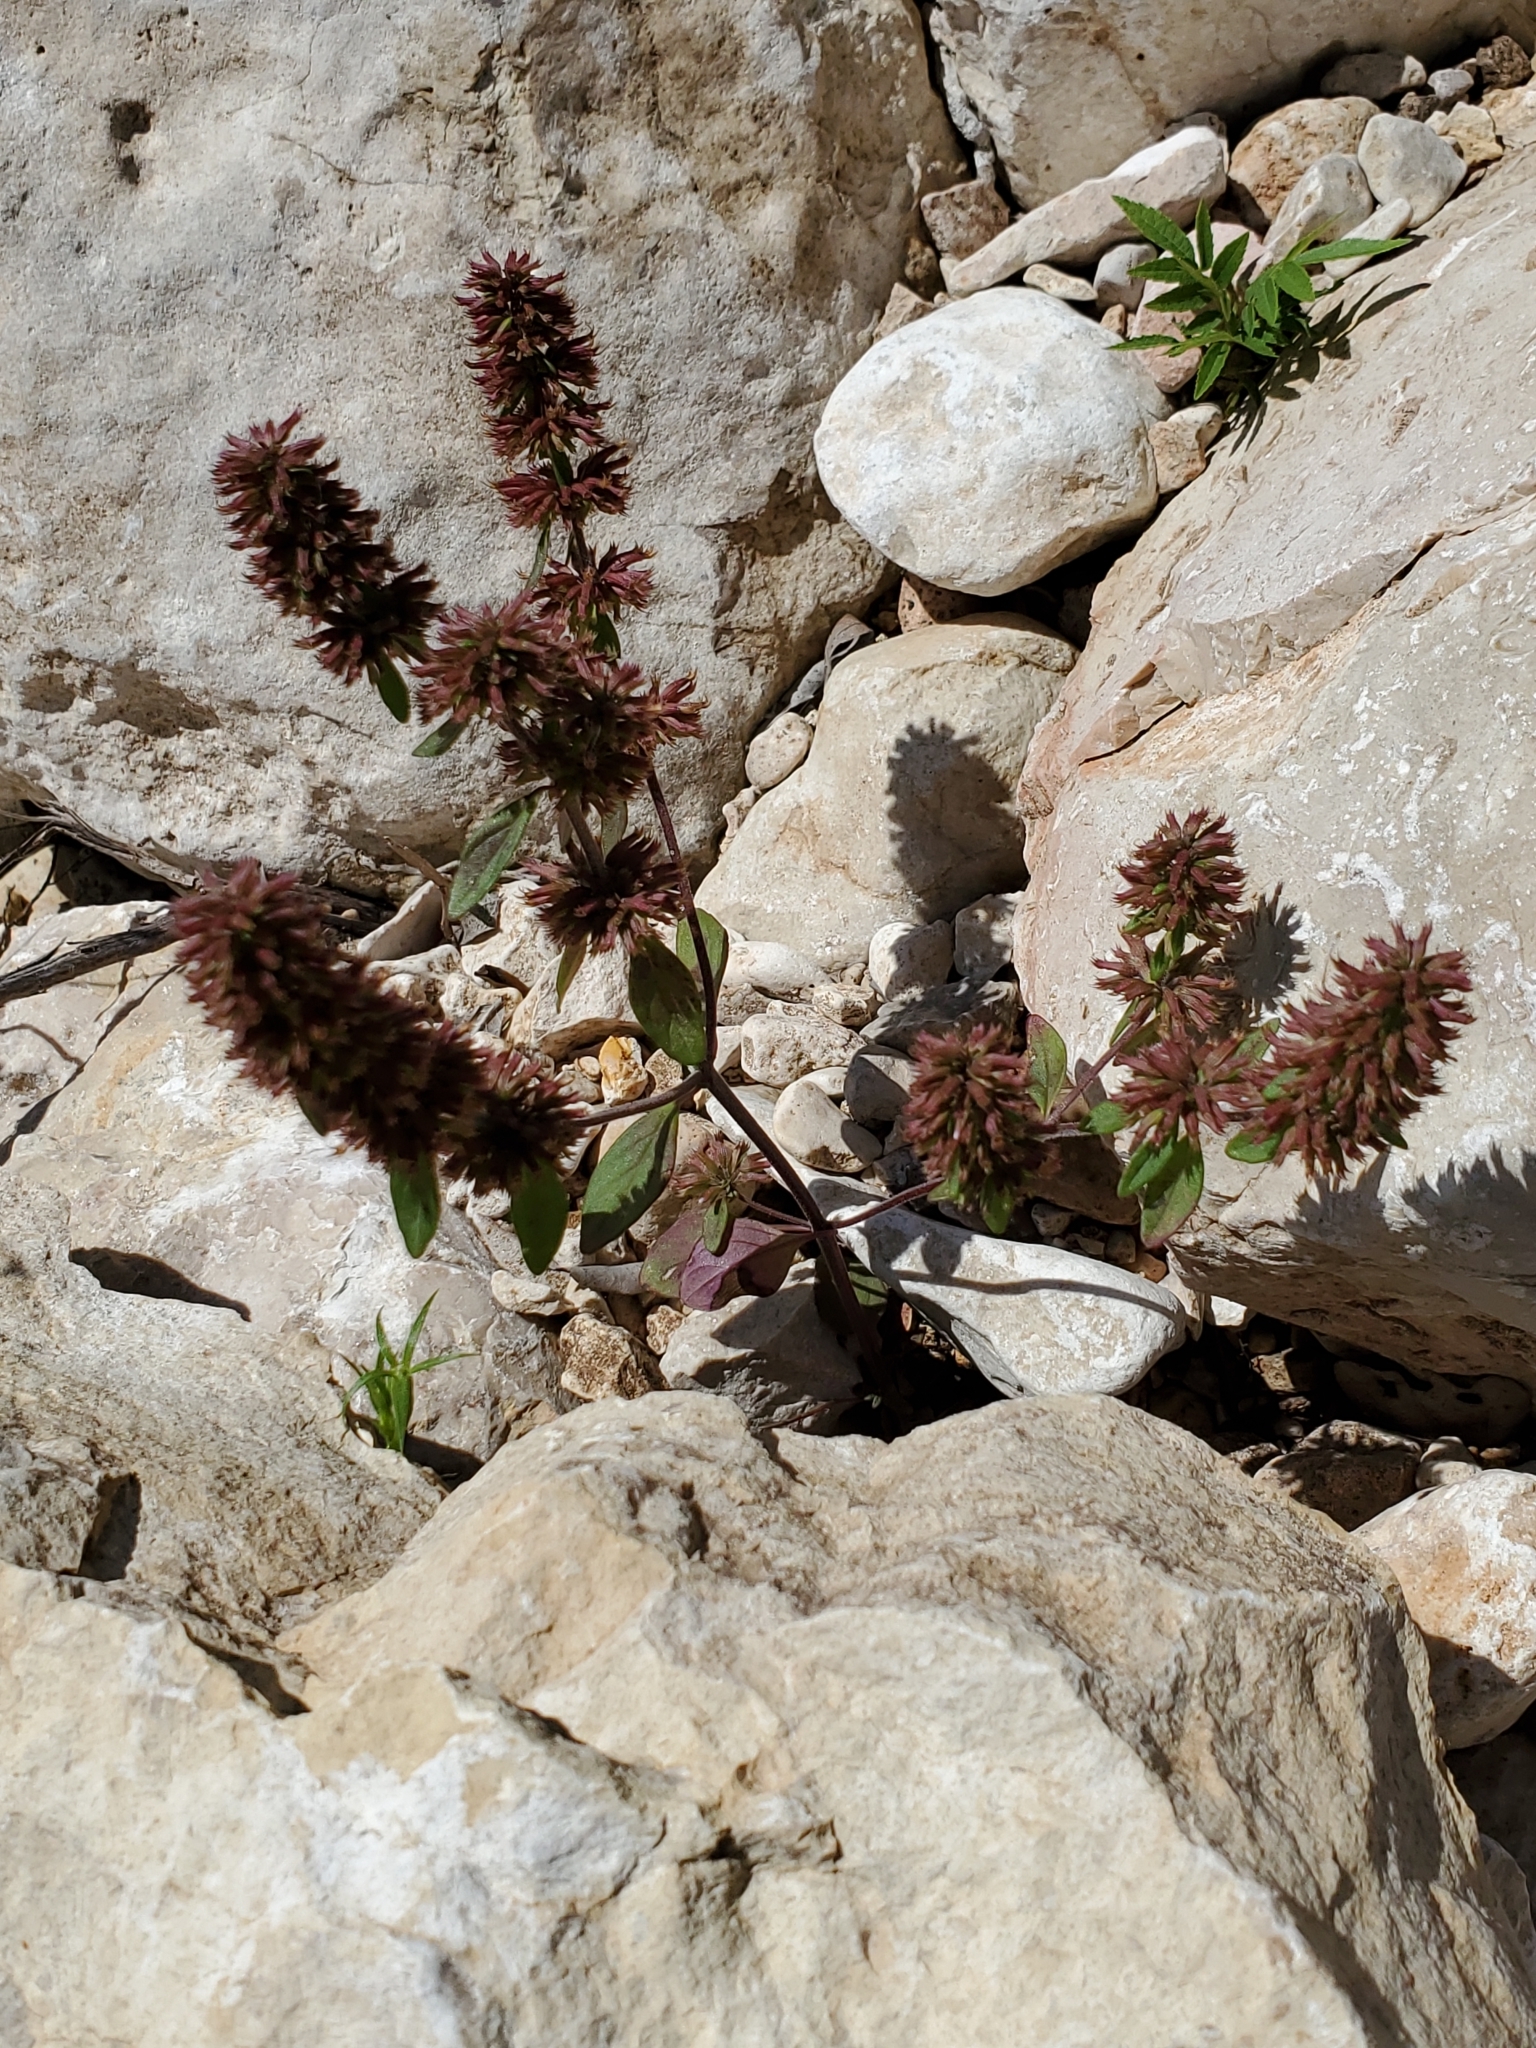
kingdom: Plantae
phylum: Tracheophyta
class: Magnoliopsida
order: Lamiales
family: Lamiaceae
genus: Hedeoma
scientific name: Hedeoma acinoides
